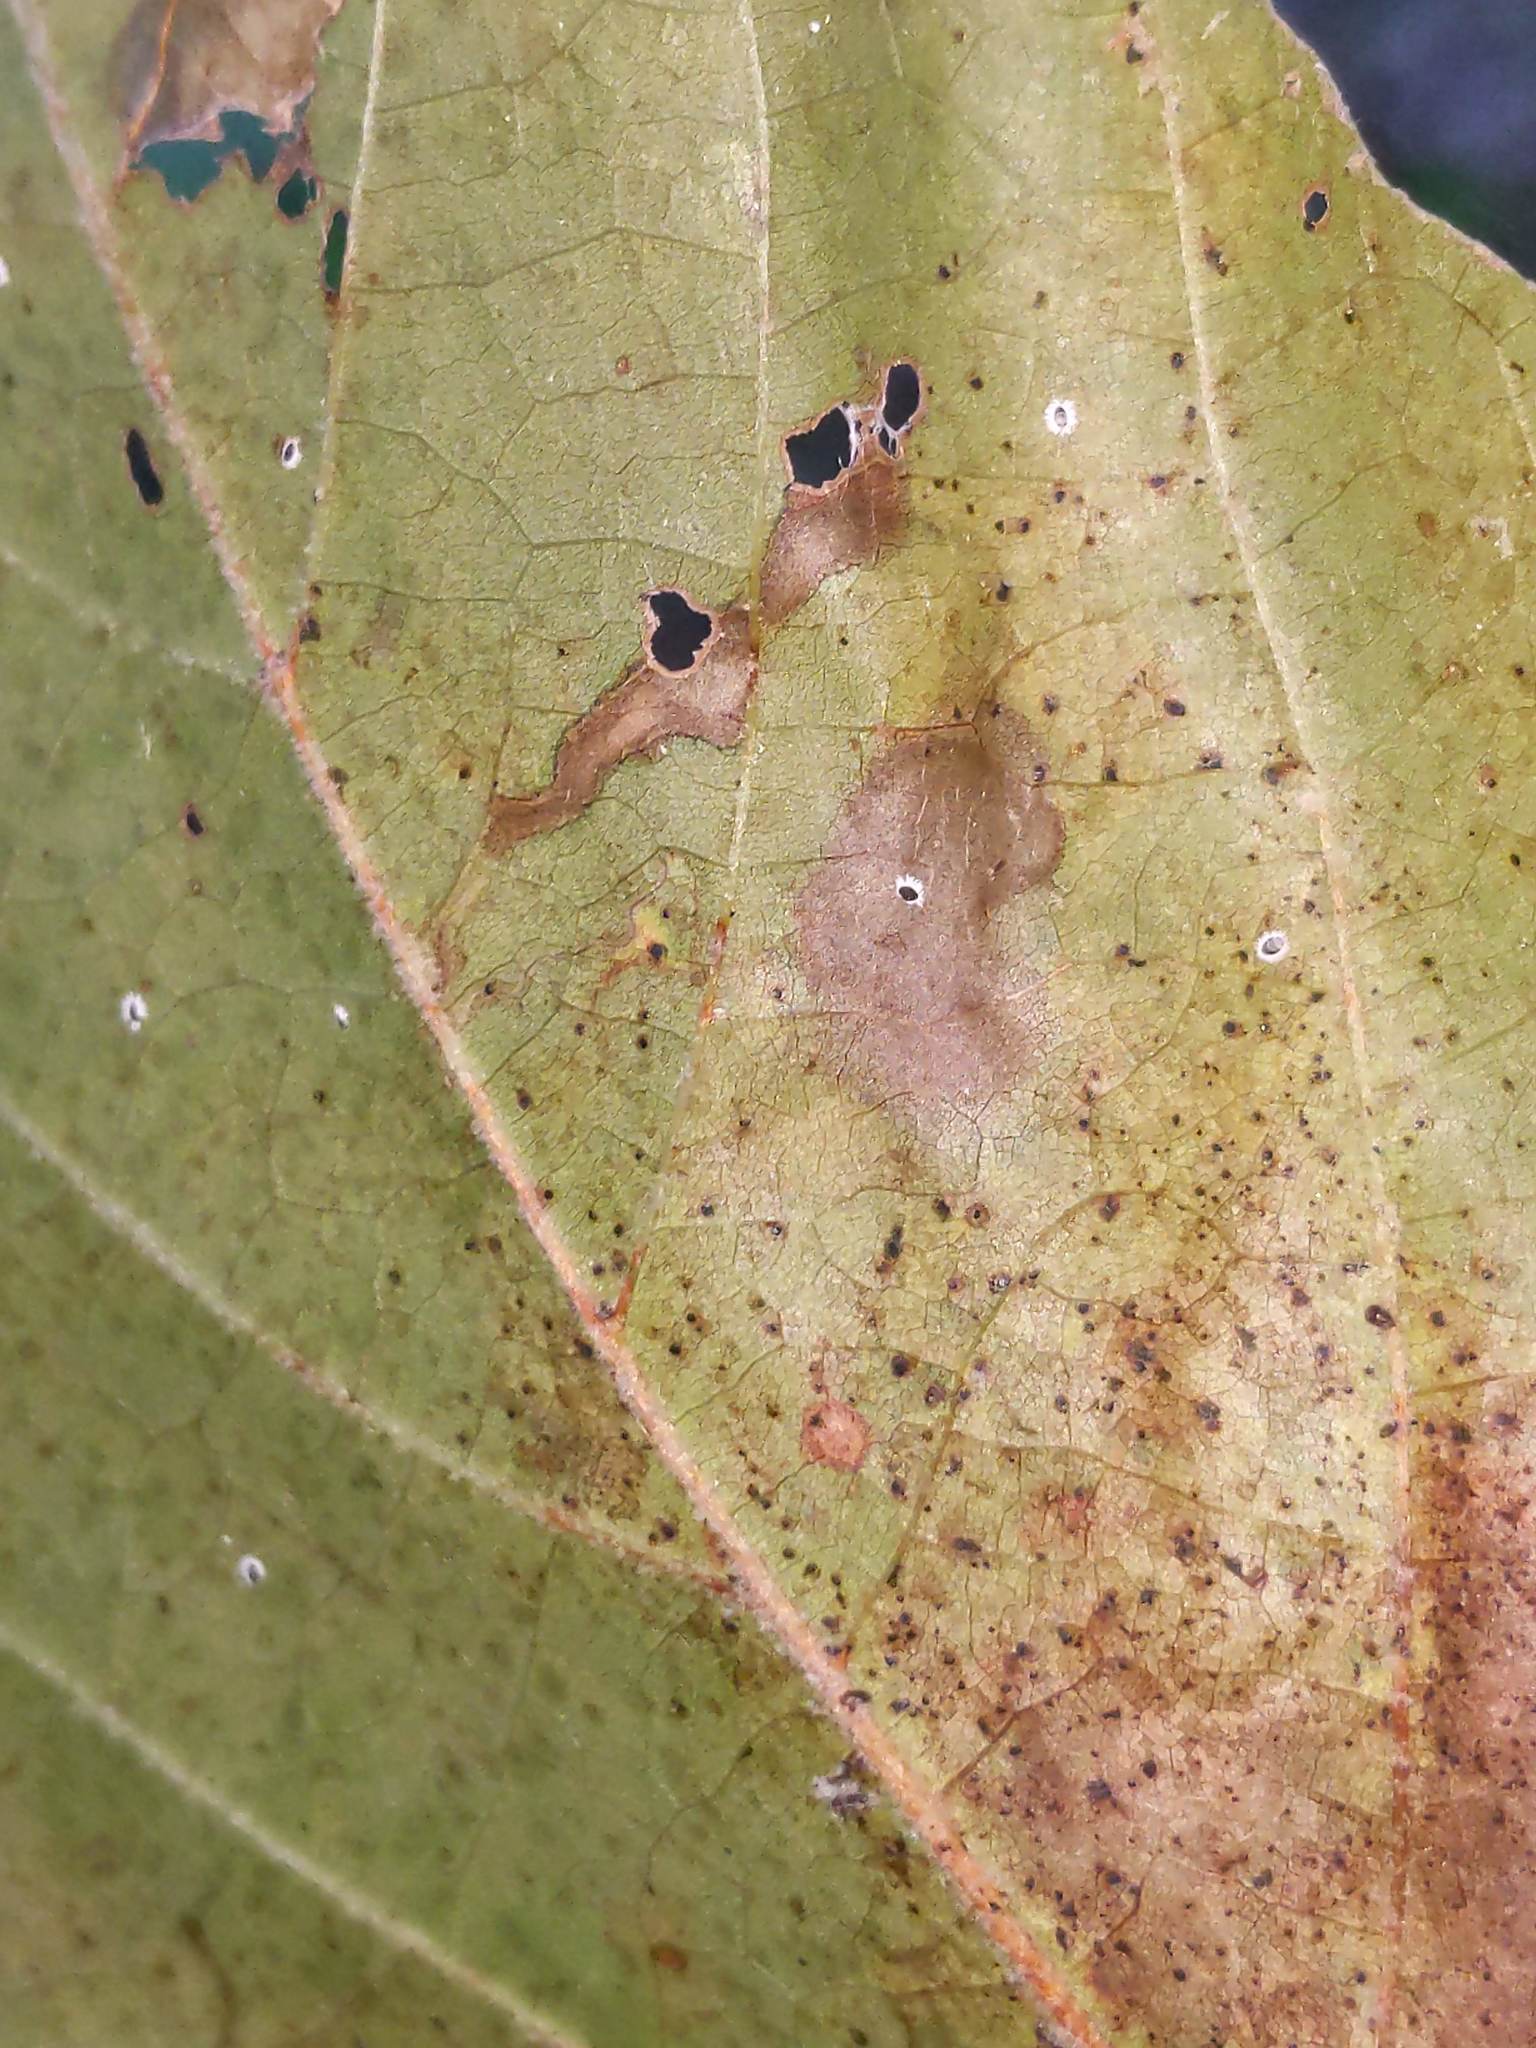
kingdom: Animalia
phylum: Arthropoda
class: Insecta
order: Lepidoptera
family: Nepticulidae
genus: Ectoedemia
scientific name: Ectoedemia clemensella
